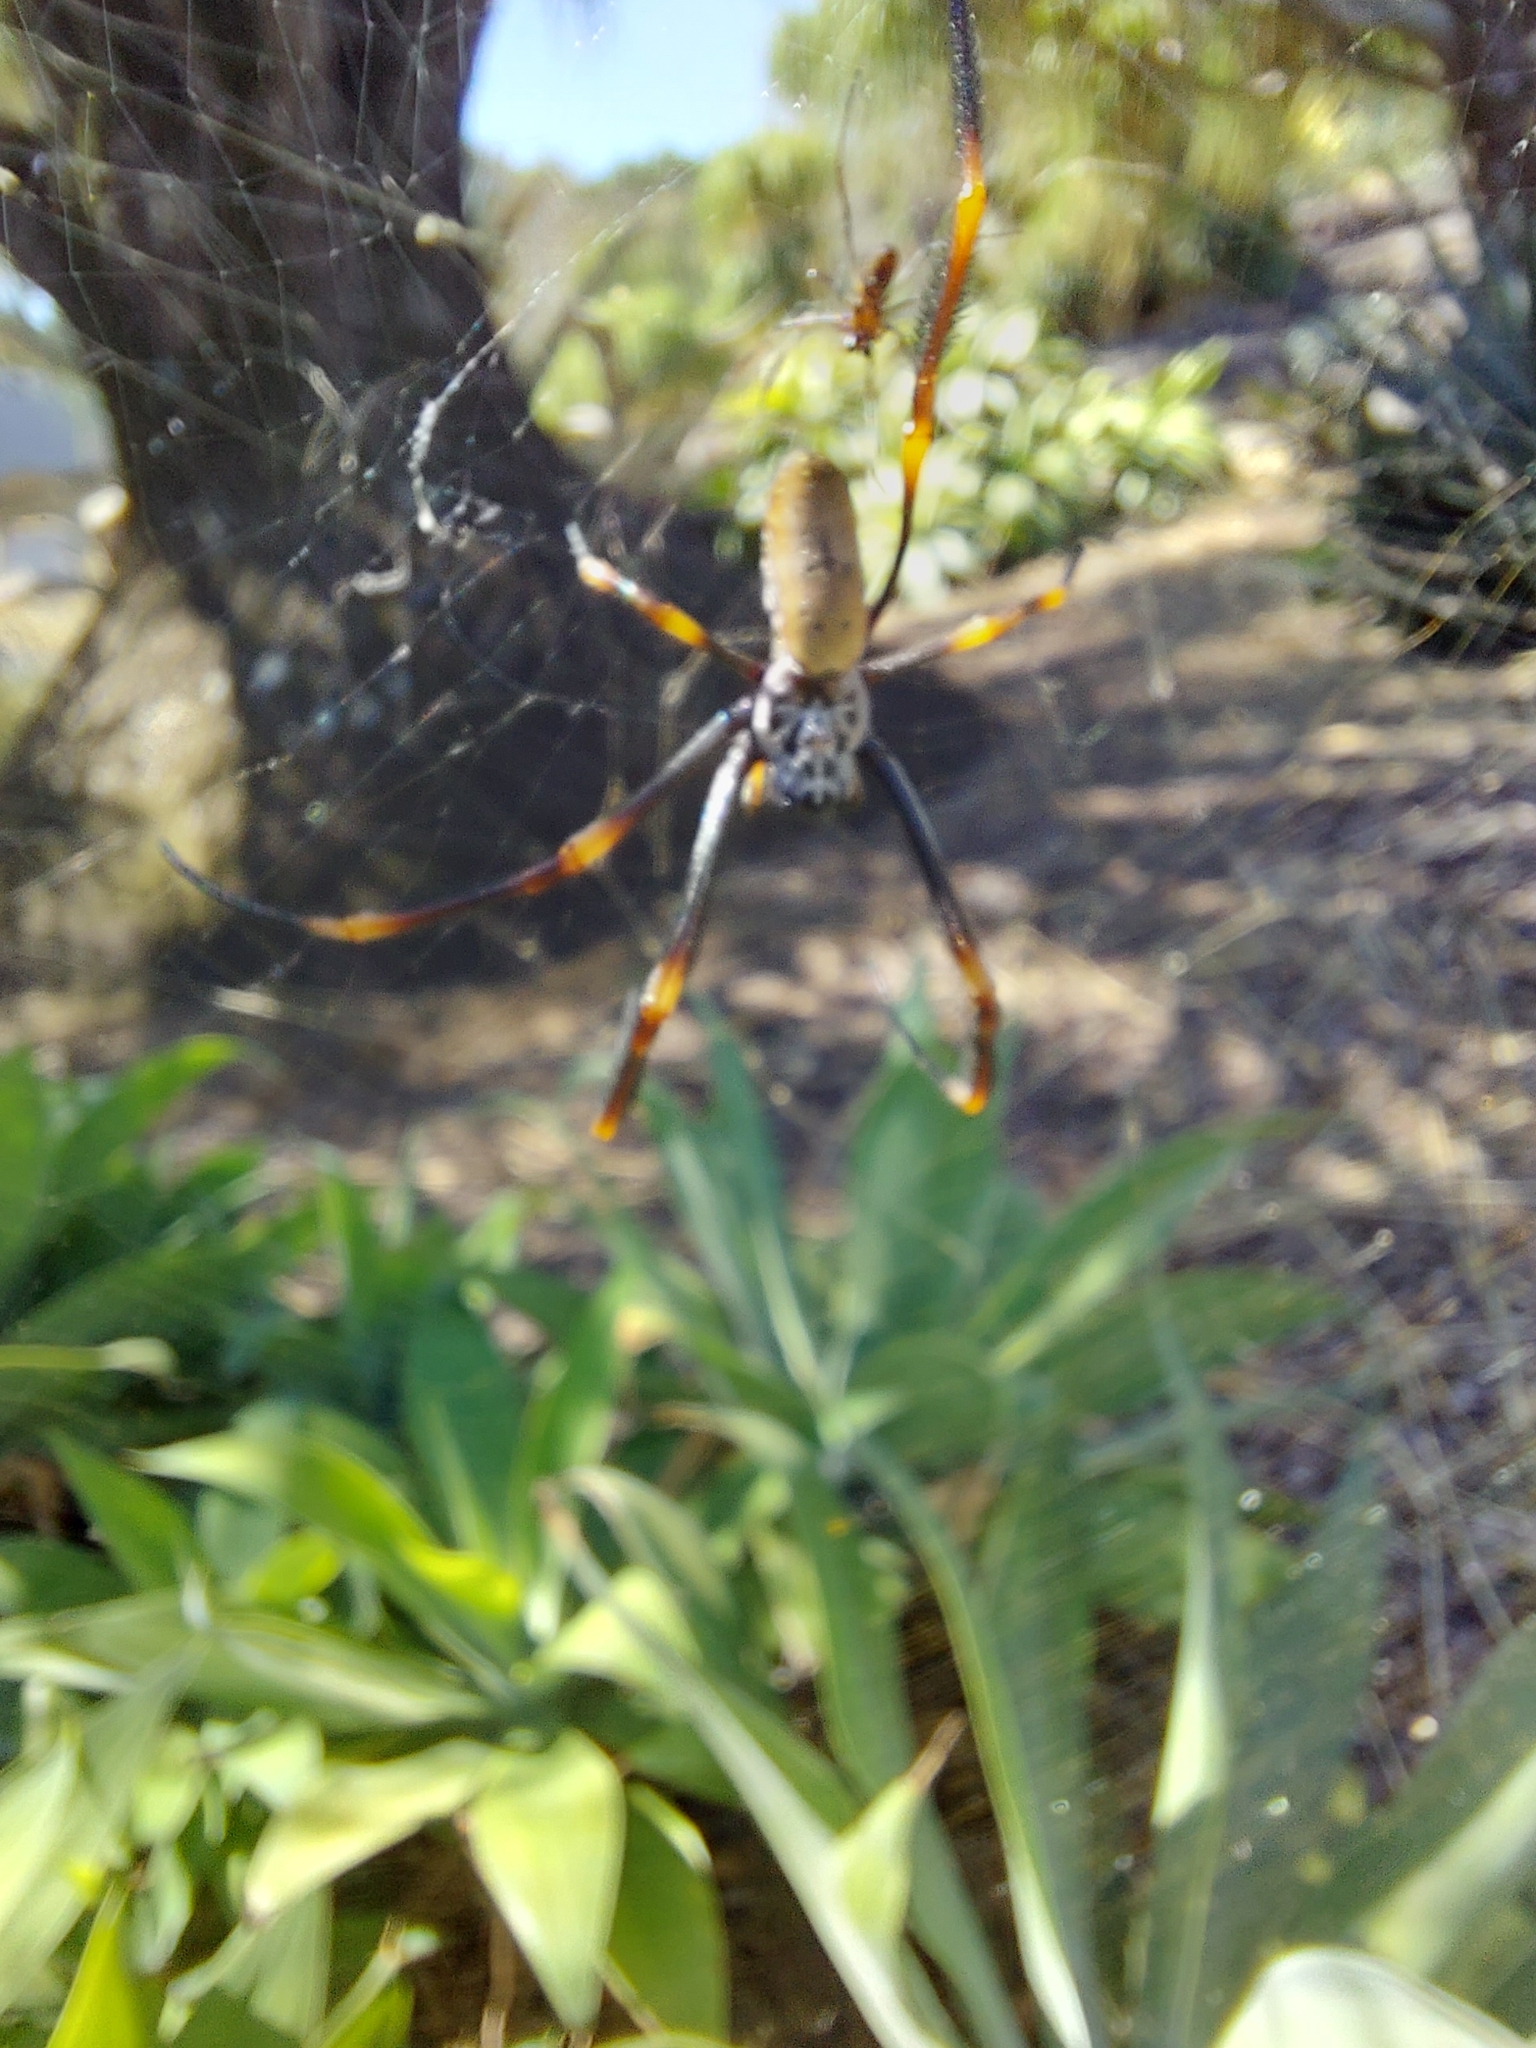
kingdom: Animalia
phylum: Arthropoda
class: Arachnida
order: Araneae
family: Araneidae
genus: Trichonephila
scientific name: Trichonephila plumipes
